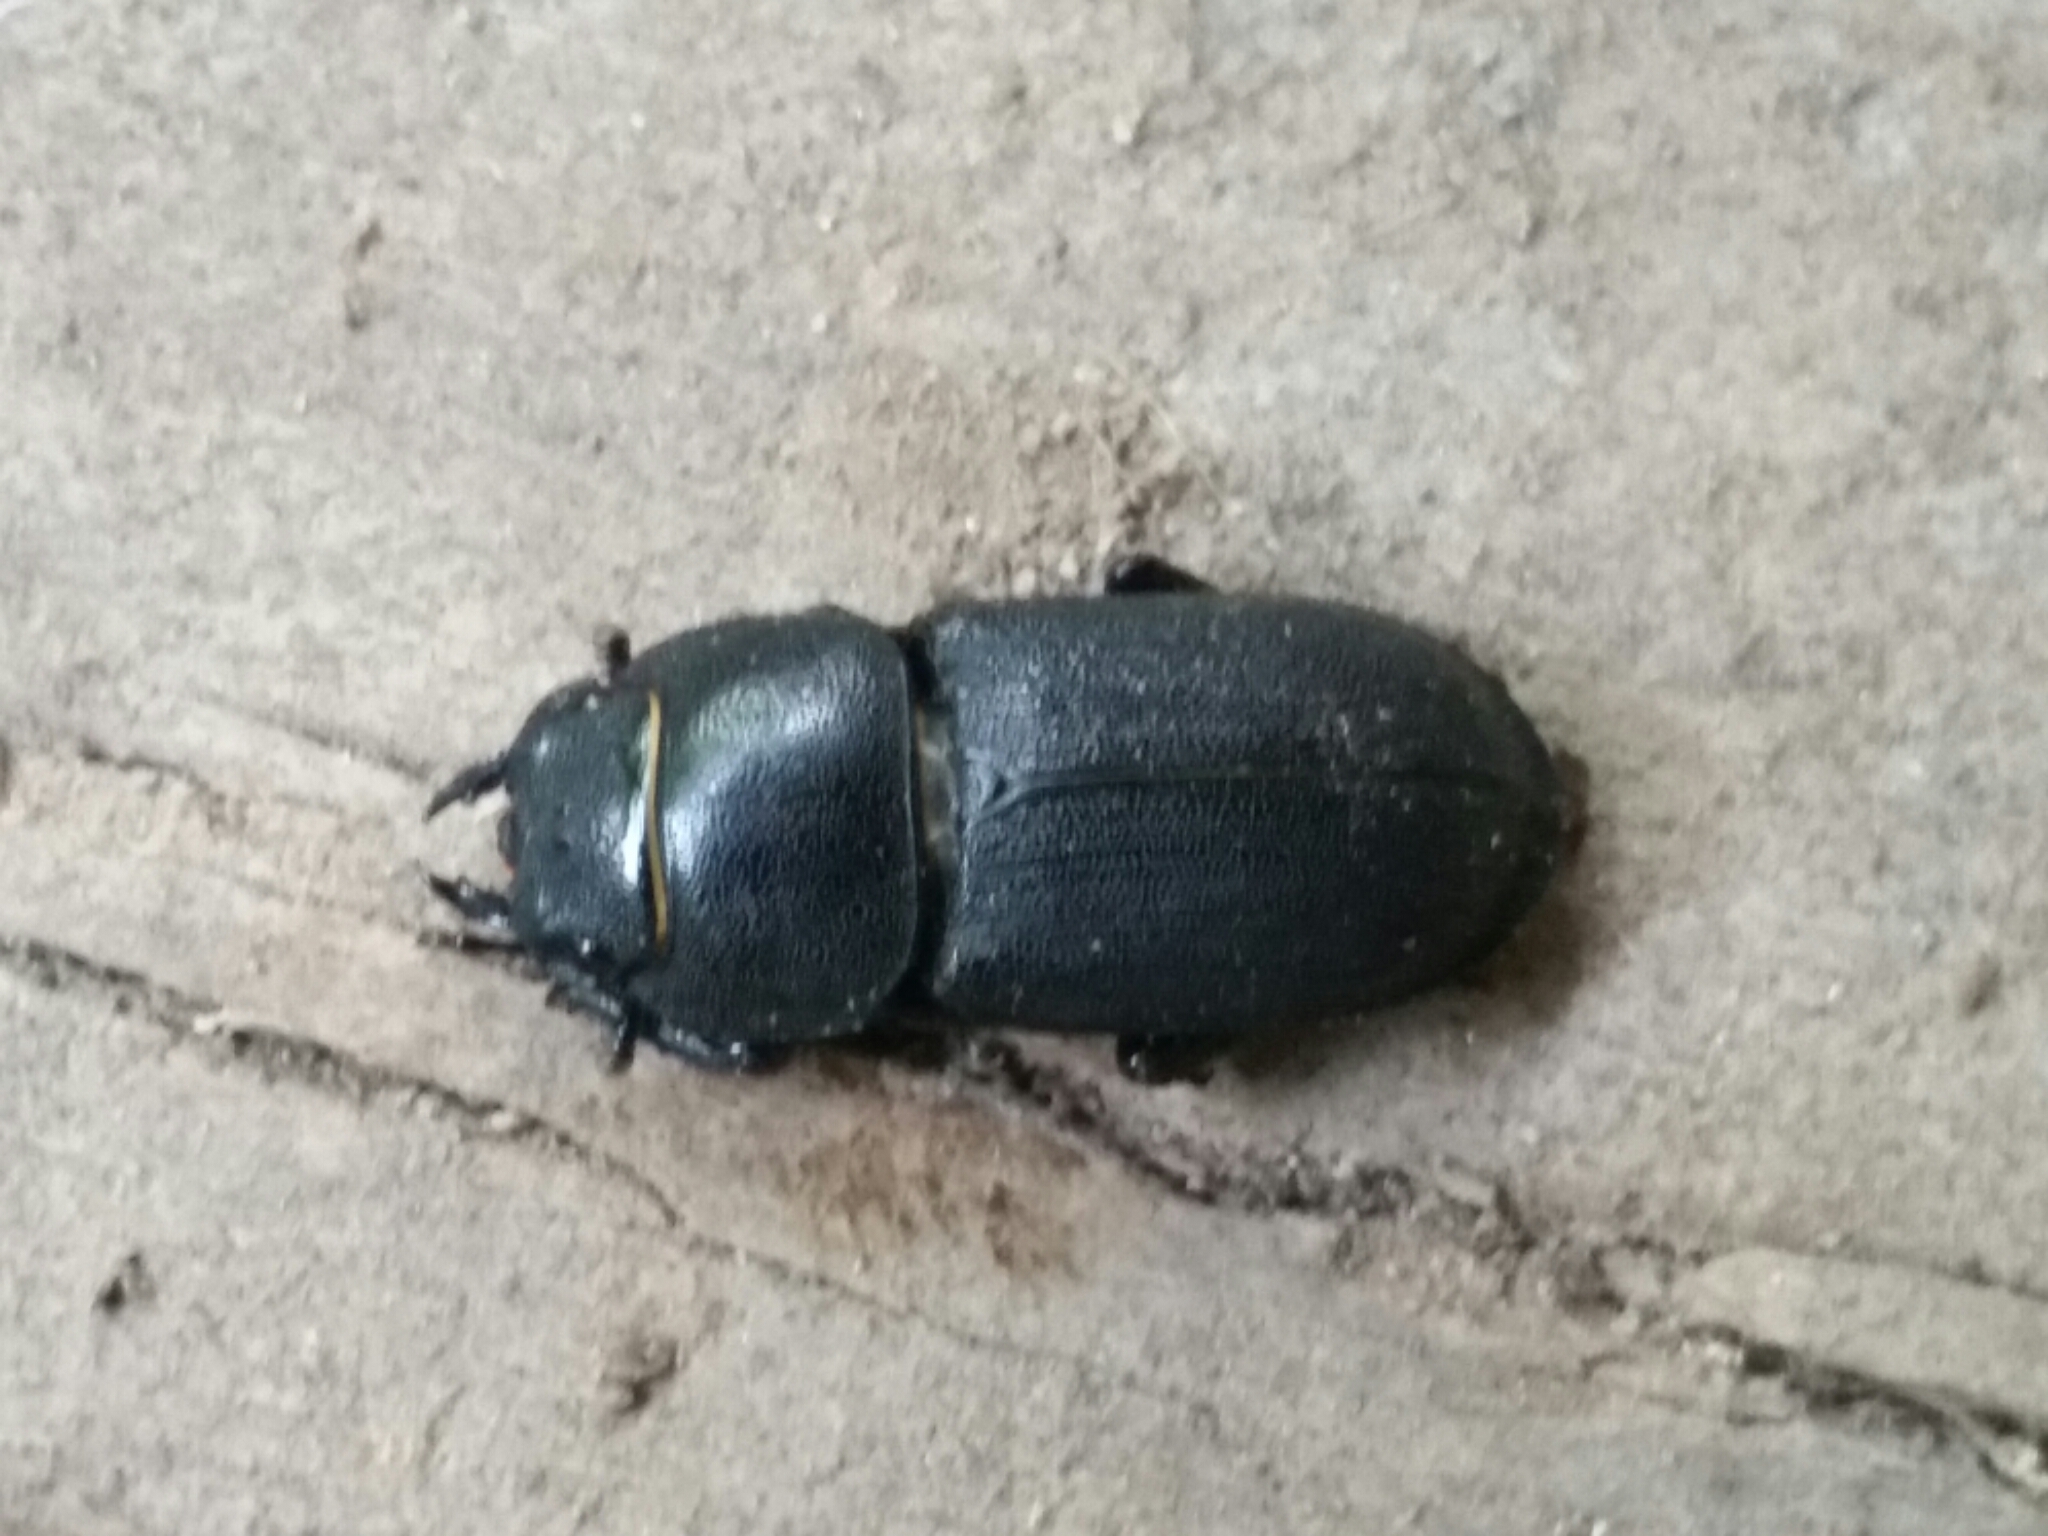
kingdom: Animalia
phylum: Arthropoda
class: Insecta
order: Coleoptera
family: Lucanidae
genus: Dorcus
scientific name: Dorcus parallelipipedus
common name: Lesser stag beetle
